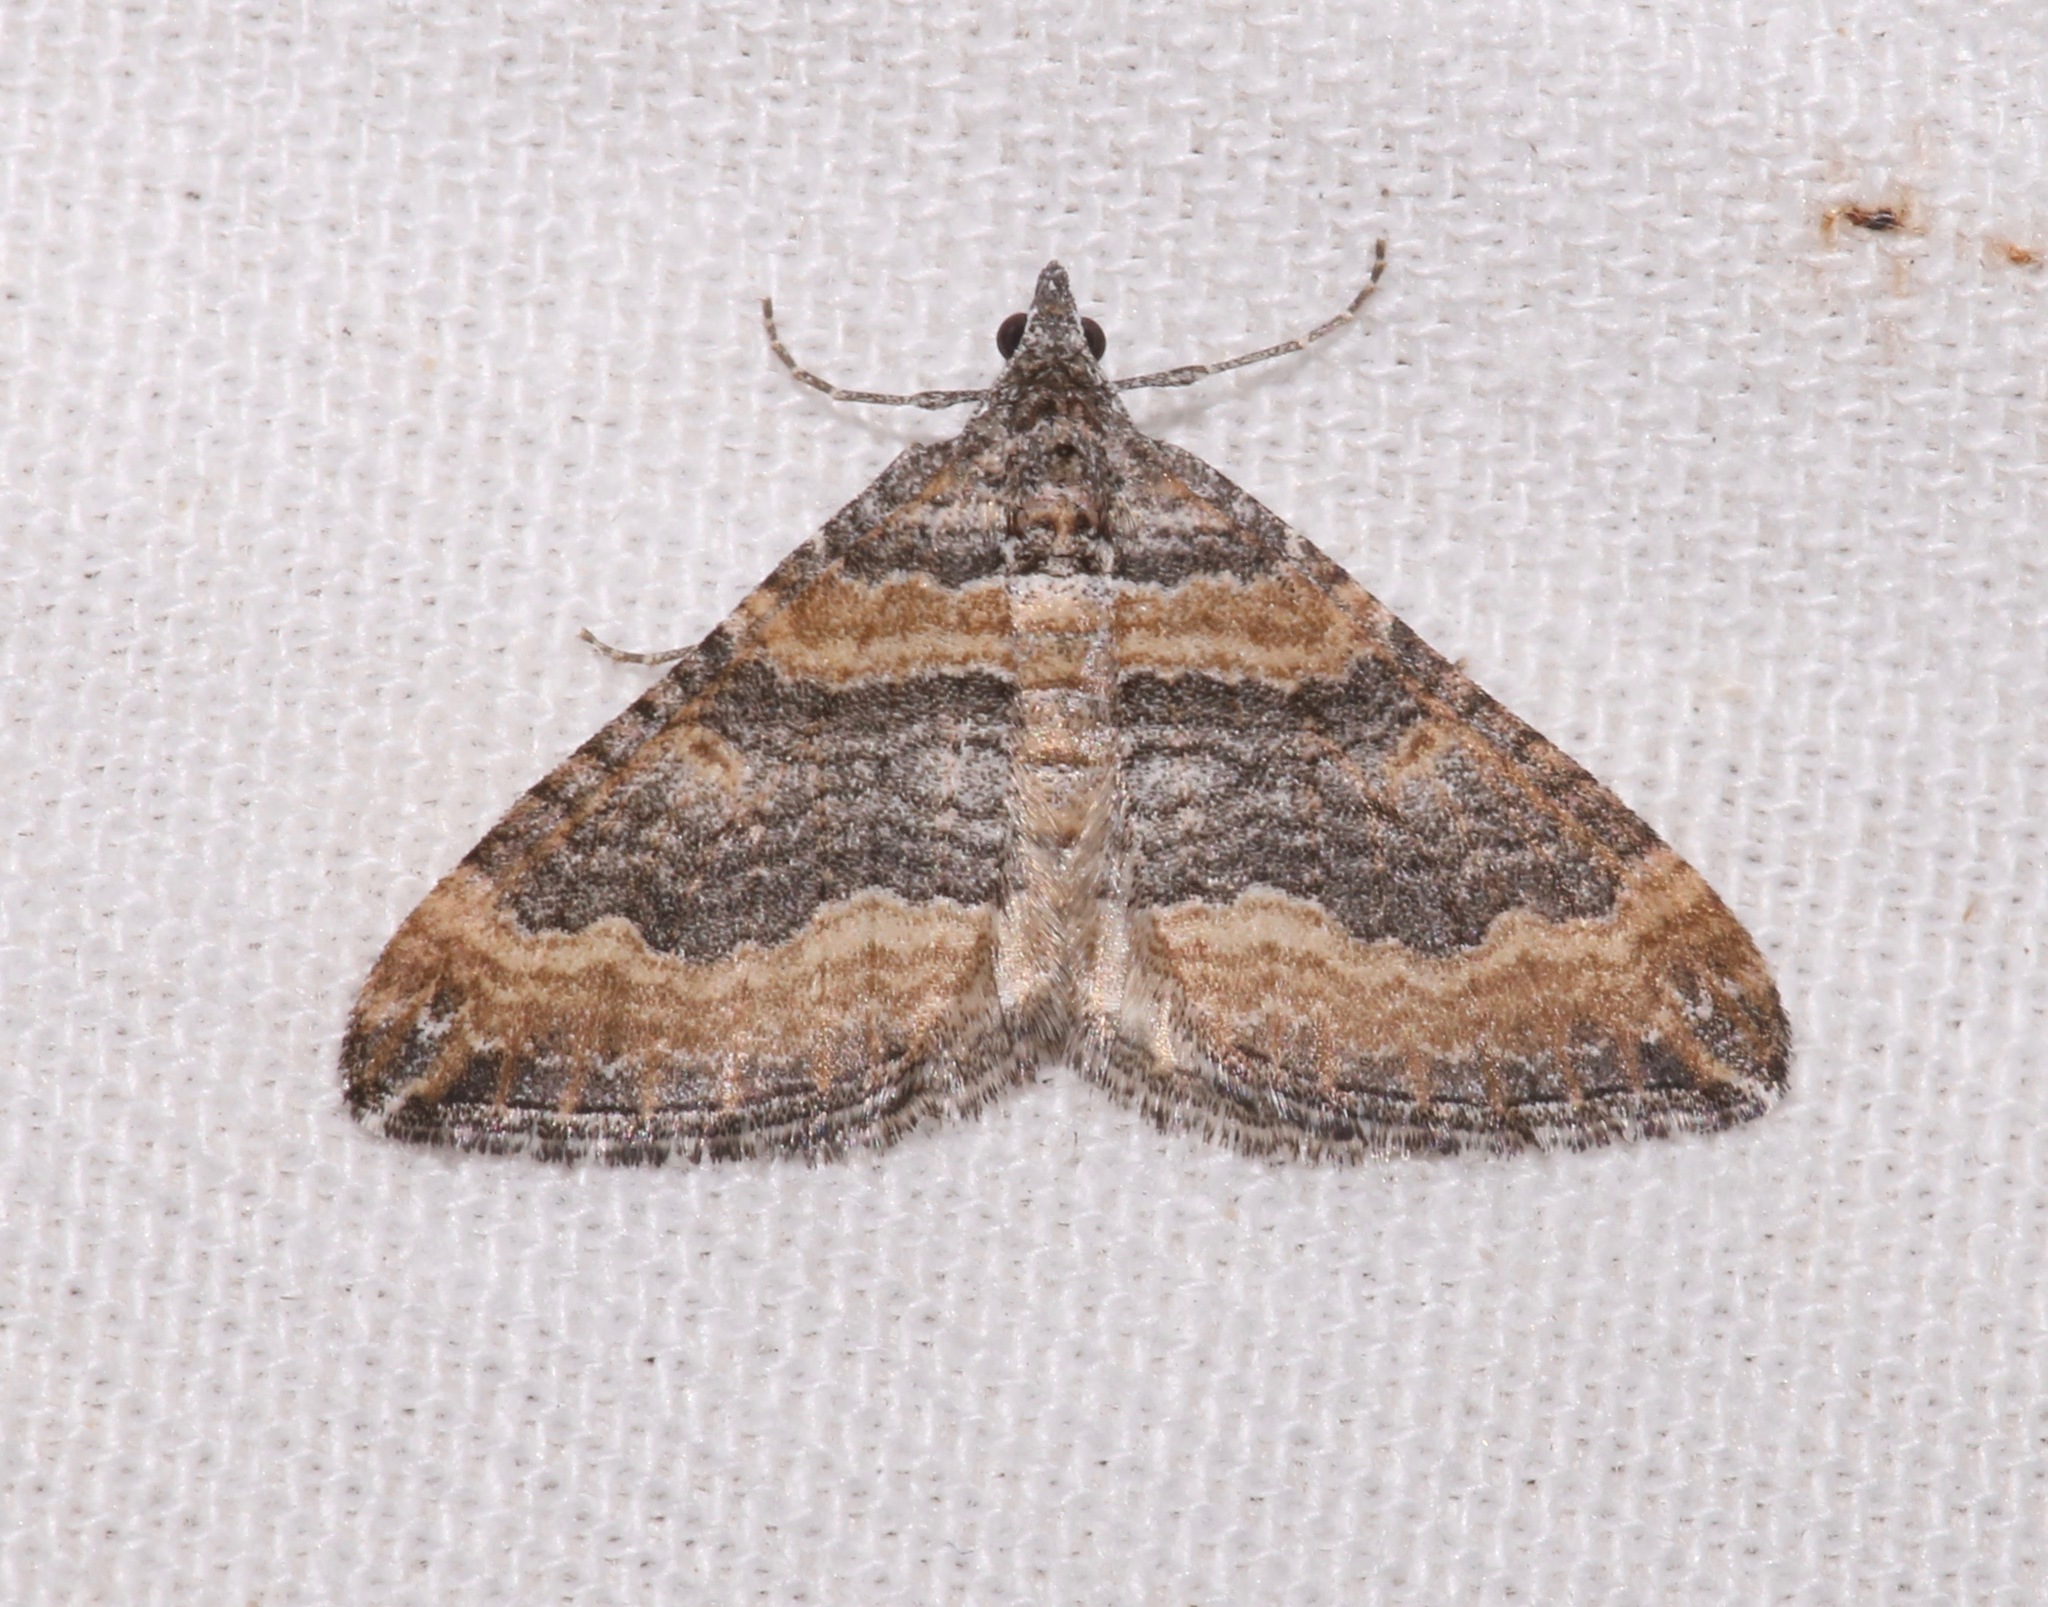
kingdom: Animalia
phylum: Arthropoda
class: Insecta
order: Lepidoptera
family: Geometridae
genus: Perizoma
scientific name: Perizoma custodiata
